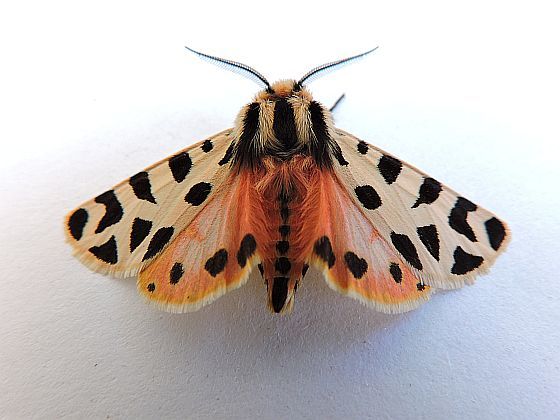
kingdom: Animalia
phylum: Arthropoda
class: Insecta
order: Lepidoptera
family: Erebidae
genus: Apantesis
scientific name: Apantesis incorrupta
